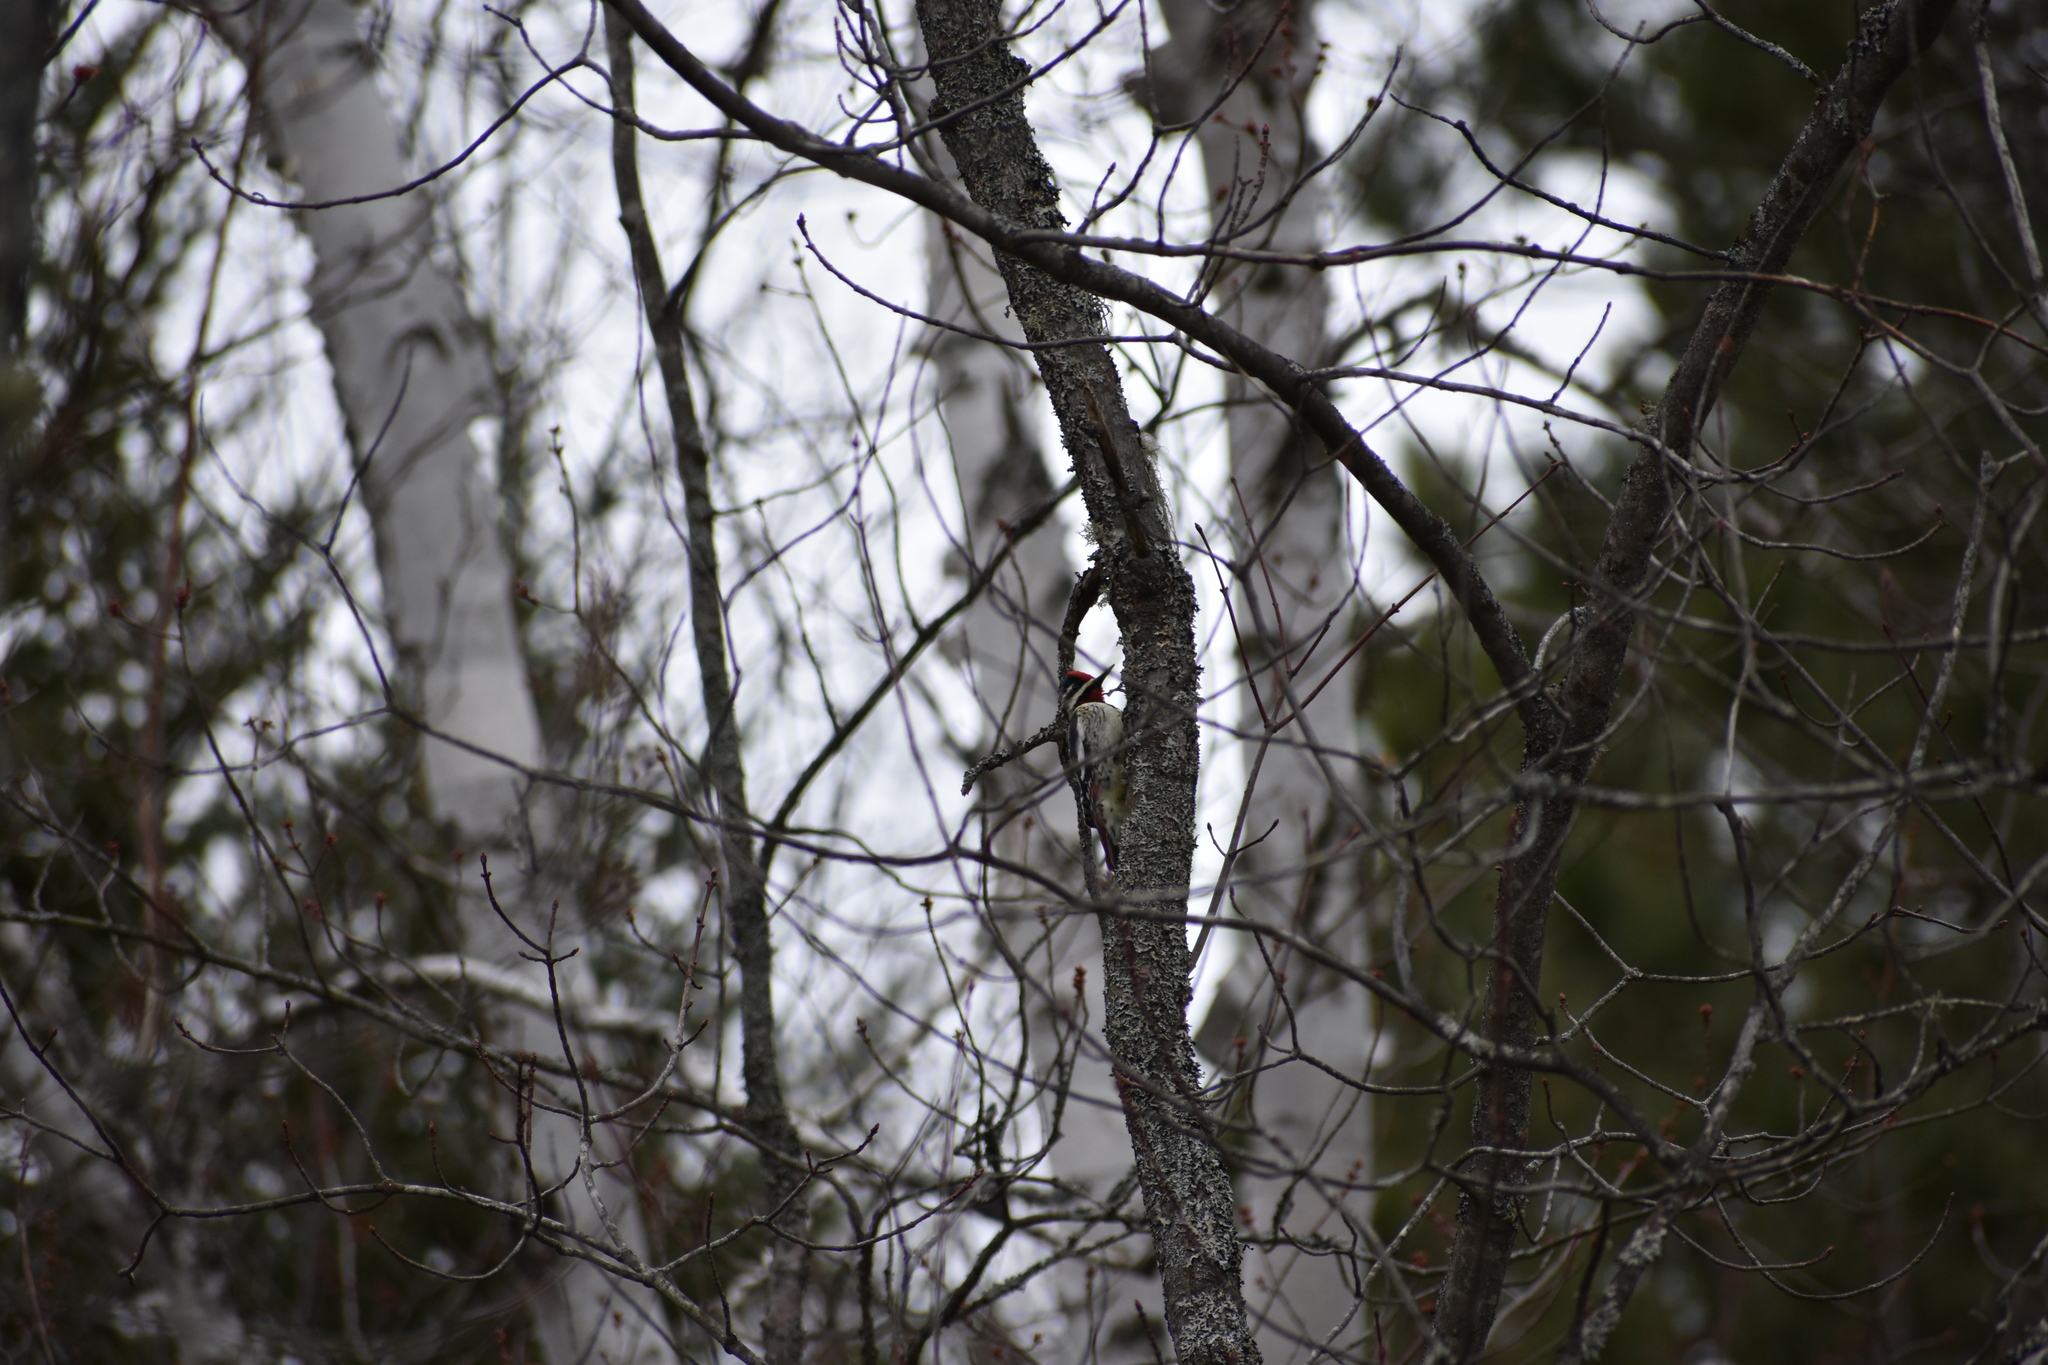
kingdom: Animalia
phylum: Chordata
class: Aves
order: Piciformes
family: Picidae
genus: Sphyrapicus
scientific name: Sphyrapicus varius
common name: Yellow-bellied sapsucker
